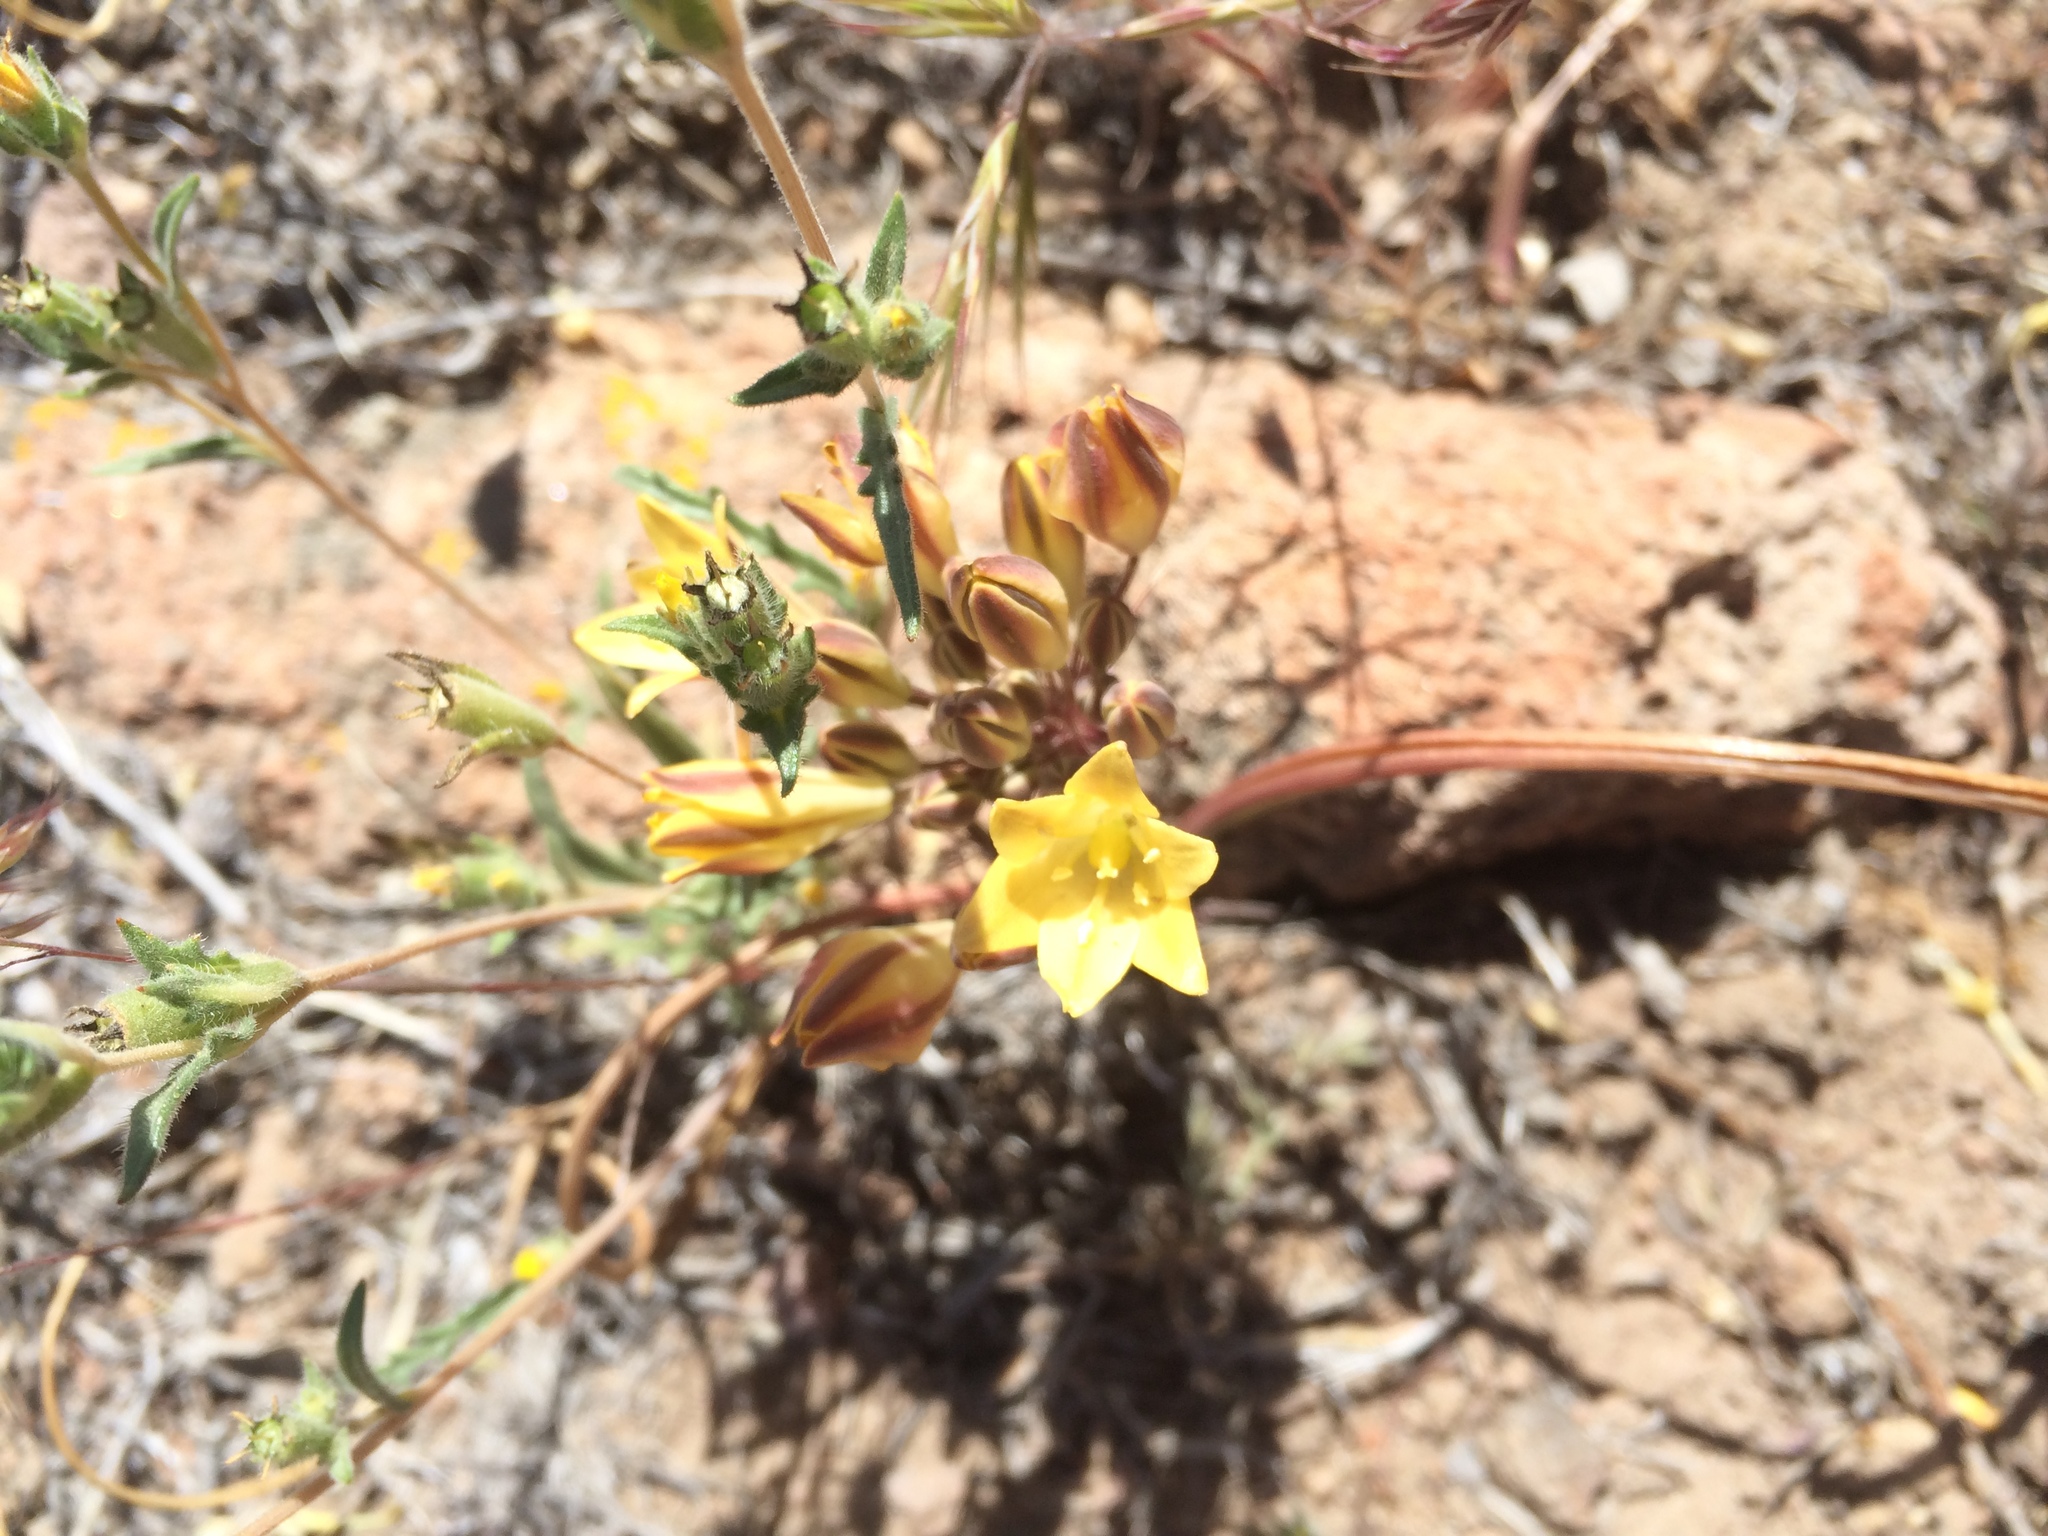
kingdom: Plantae
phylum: Tracheophyta
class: Liliopsida
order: Asparagales
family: Asparagaceae
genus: Triteleia
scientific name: Triteleia piutensis
